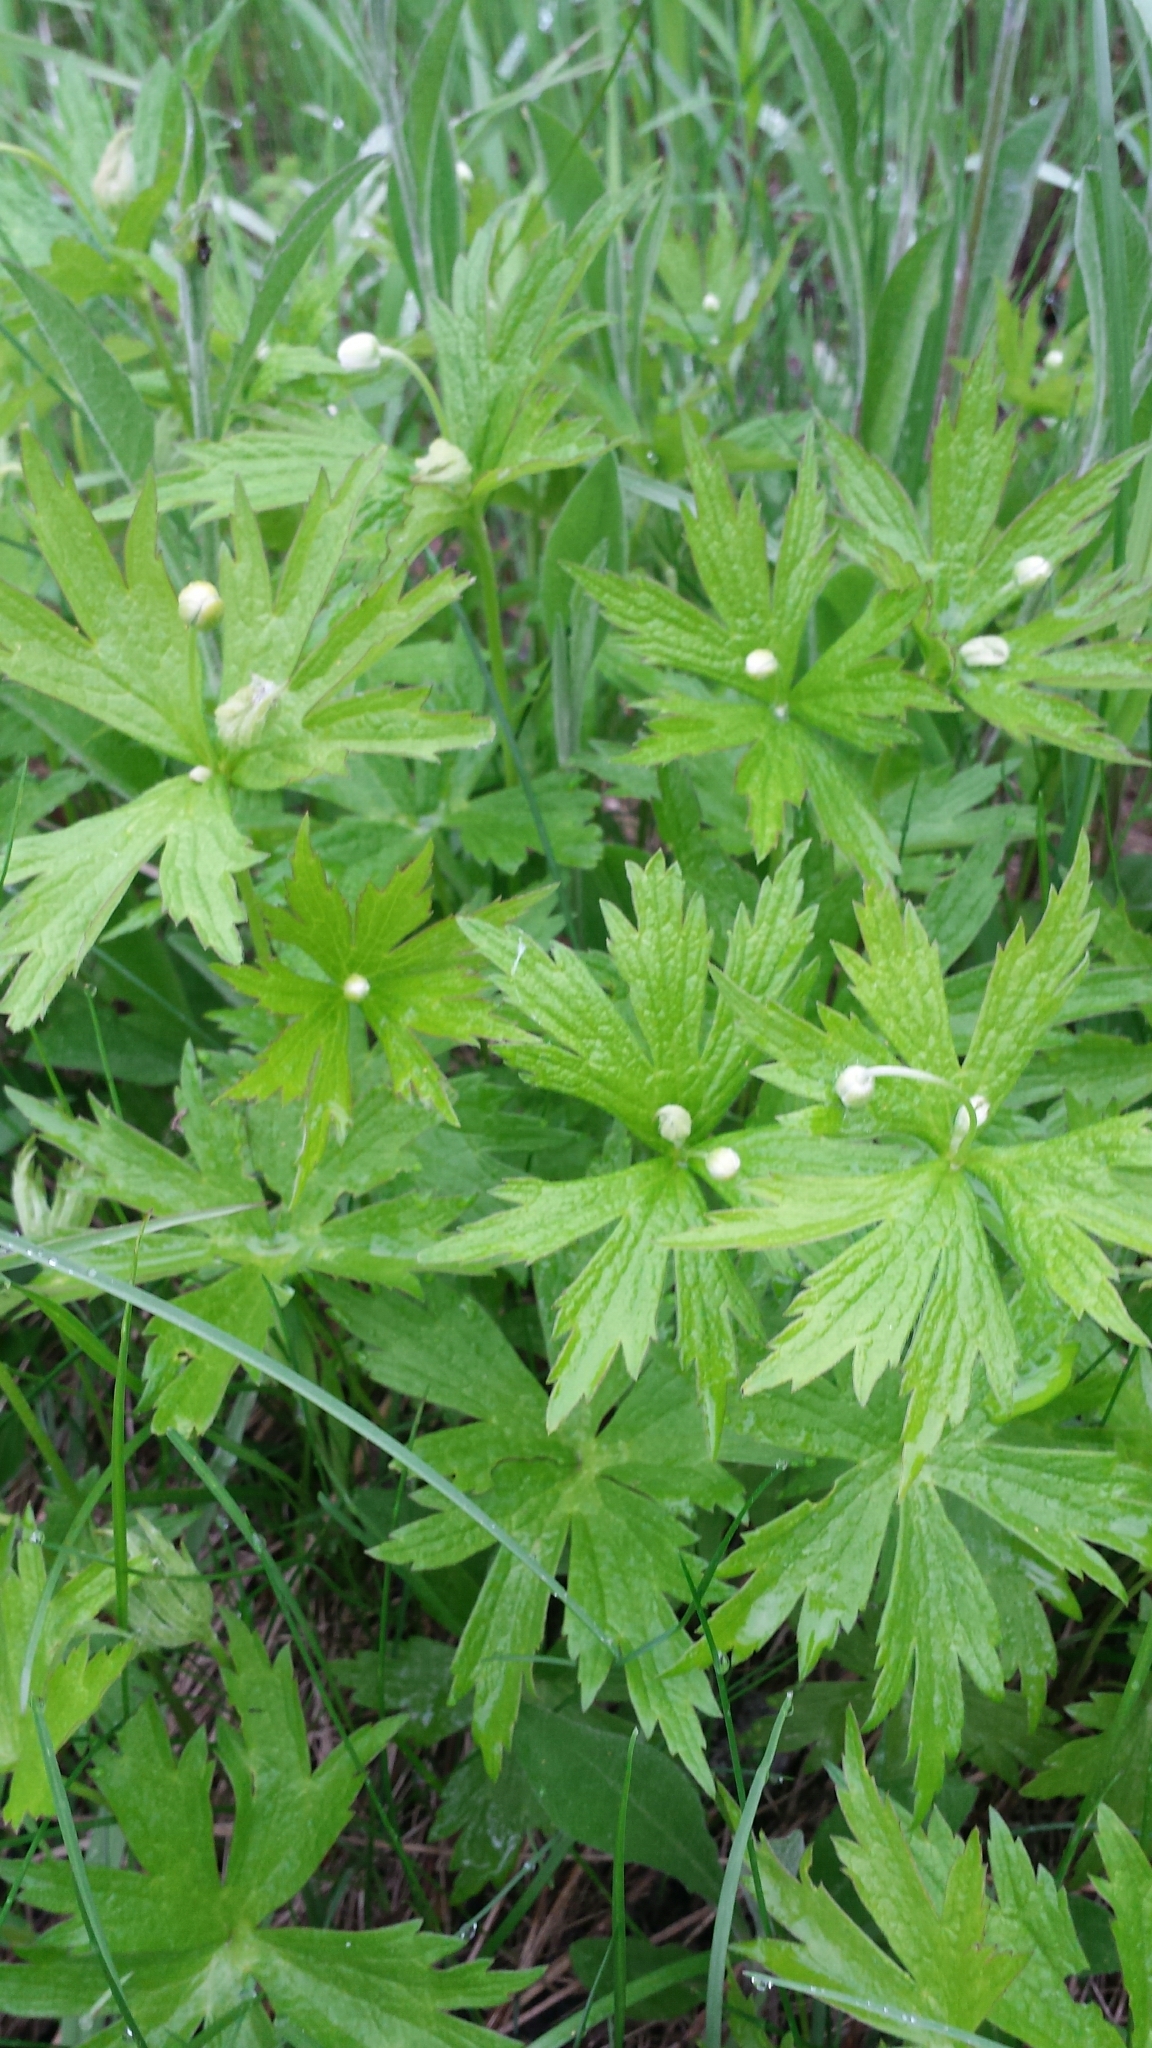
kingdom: Plantae
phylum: Tracheophyta
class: Magnoliopsida
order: Ranunculales
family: Ranunculaceae
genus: Anemonastrum
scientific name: Anemonastrum canadense
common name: Canada anemone
